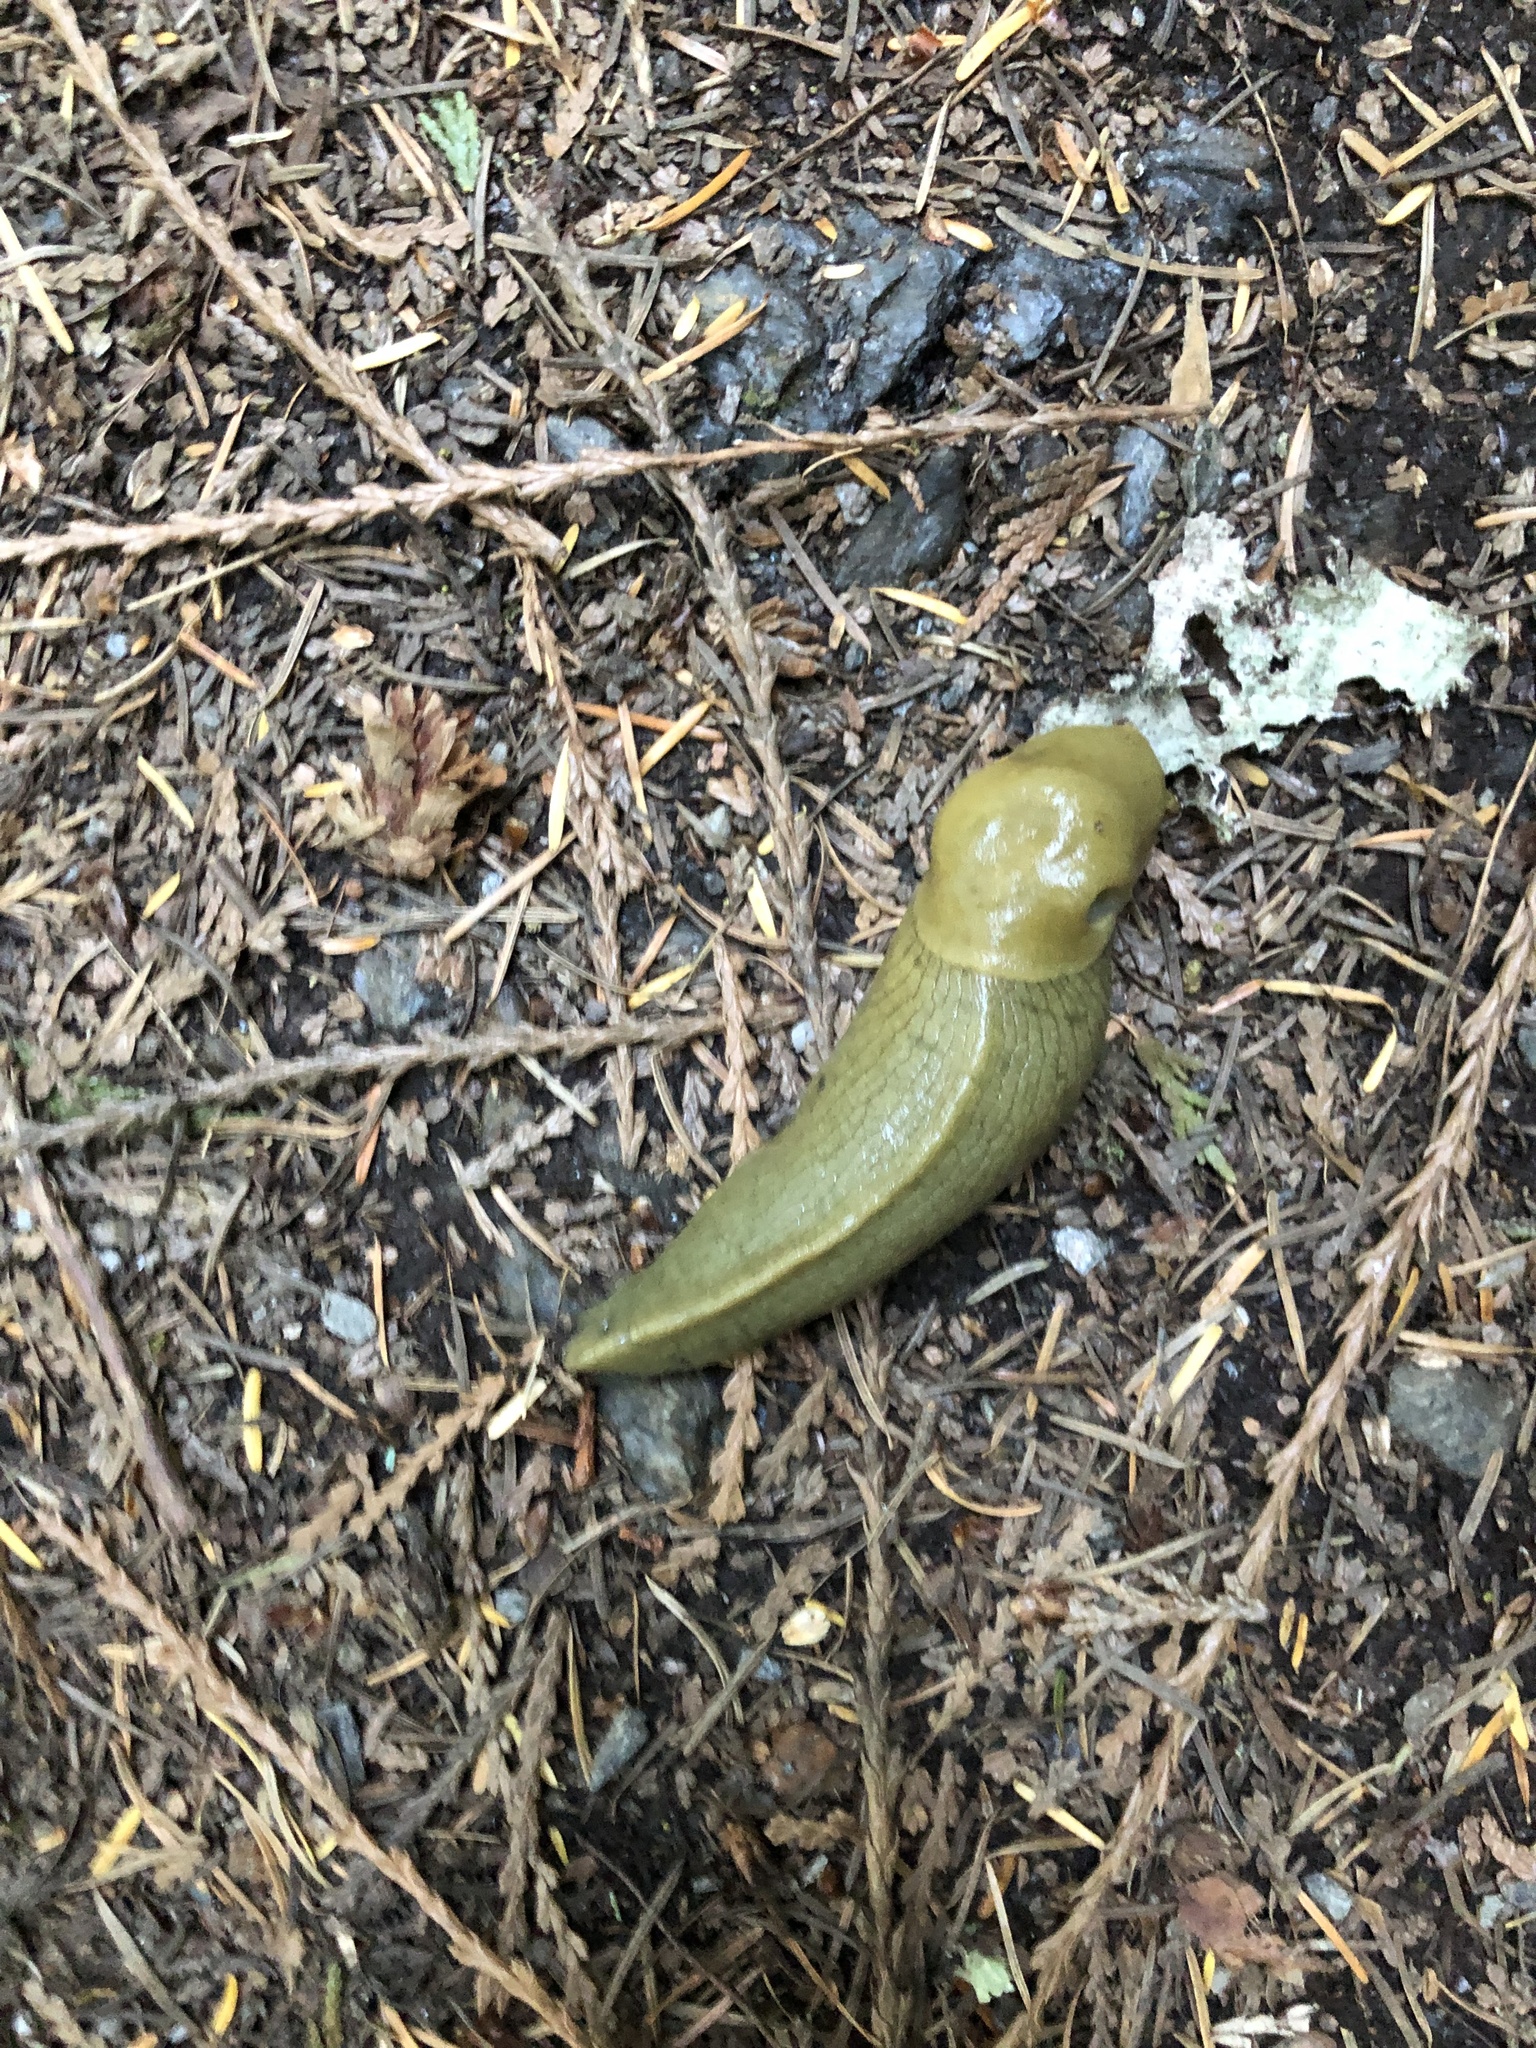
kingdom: Animalia
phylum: Mollusca
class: Gastropoda
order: Stylommatophora
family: Ariolimacidae
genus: Ariolimax
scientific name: Ariolimax columbianus
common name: Pacific banana slug
